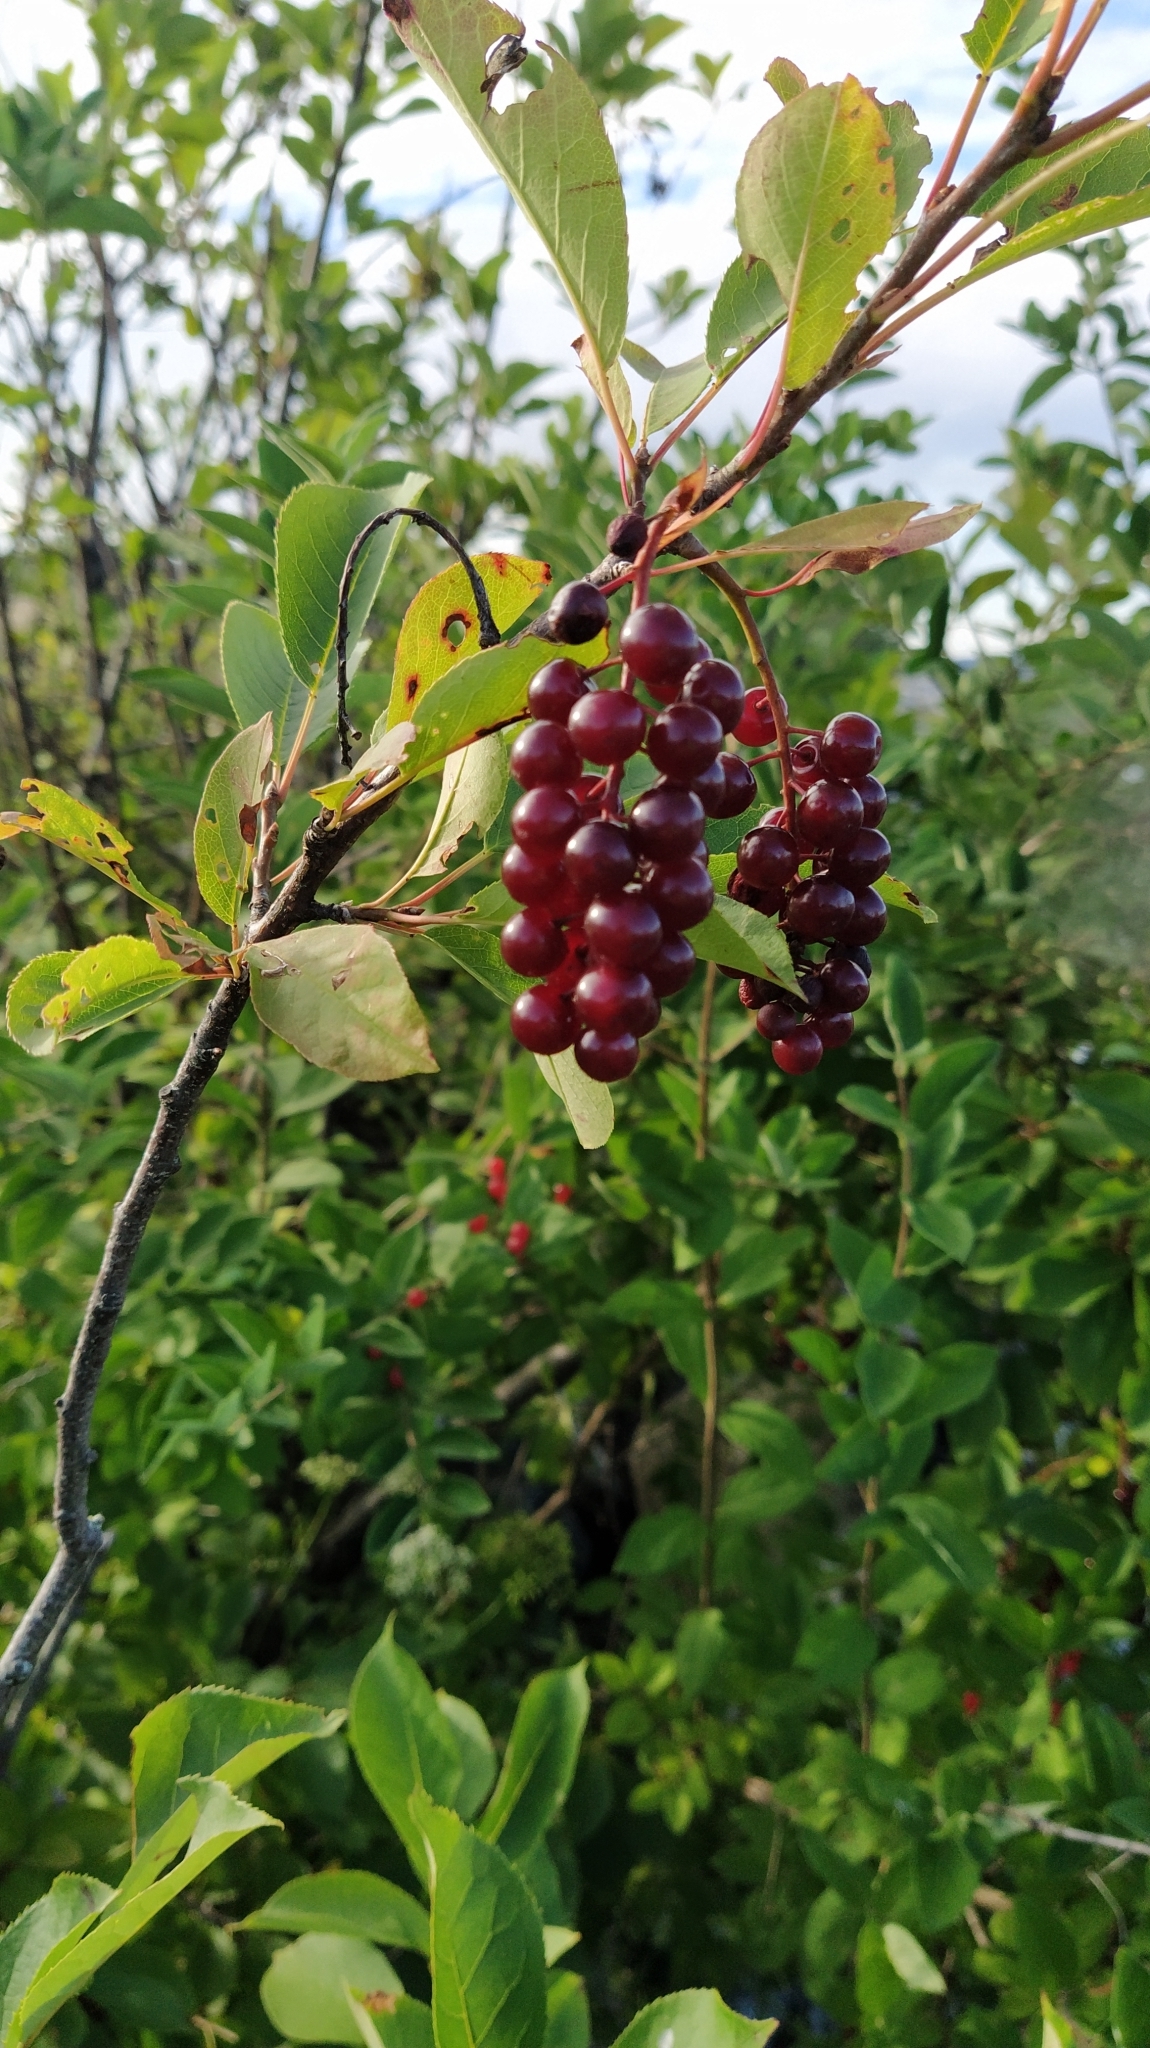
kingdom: Plantae
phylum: Tracheophyta
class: Magnoliopsida
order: Rosales
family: Rosaceae
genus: Prunus
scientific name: Prunus virginiana
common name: Chokecherry
